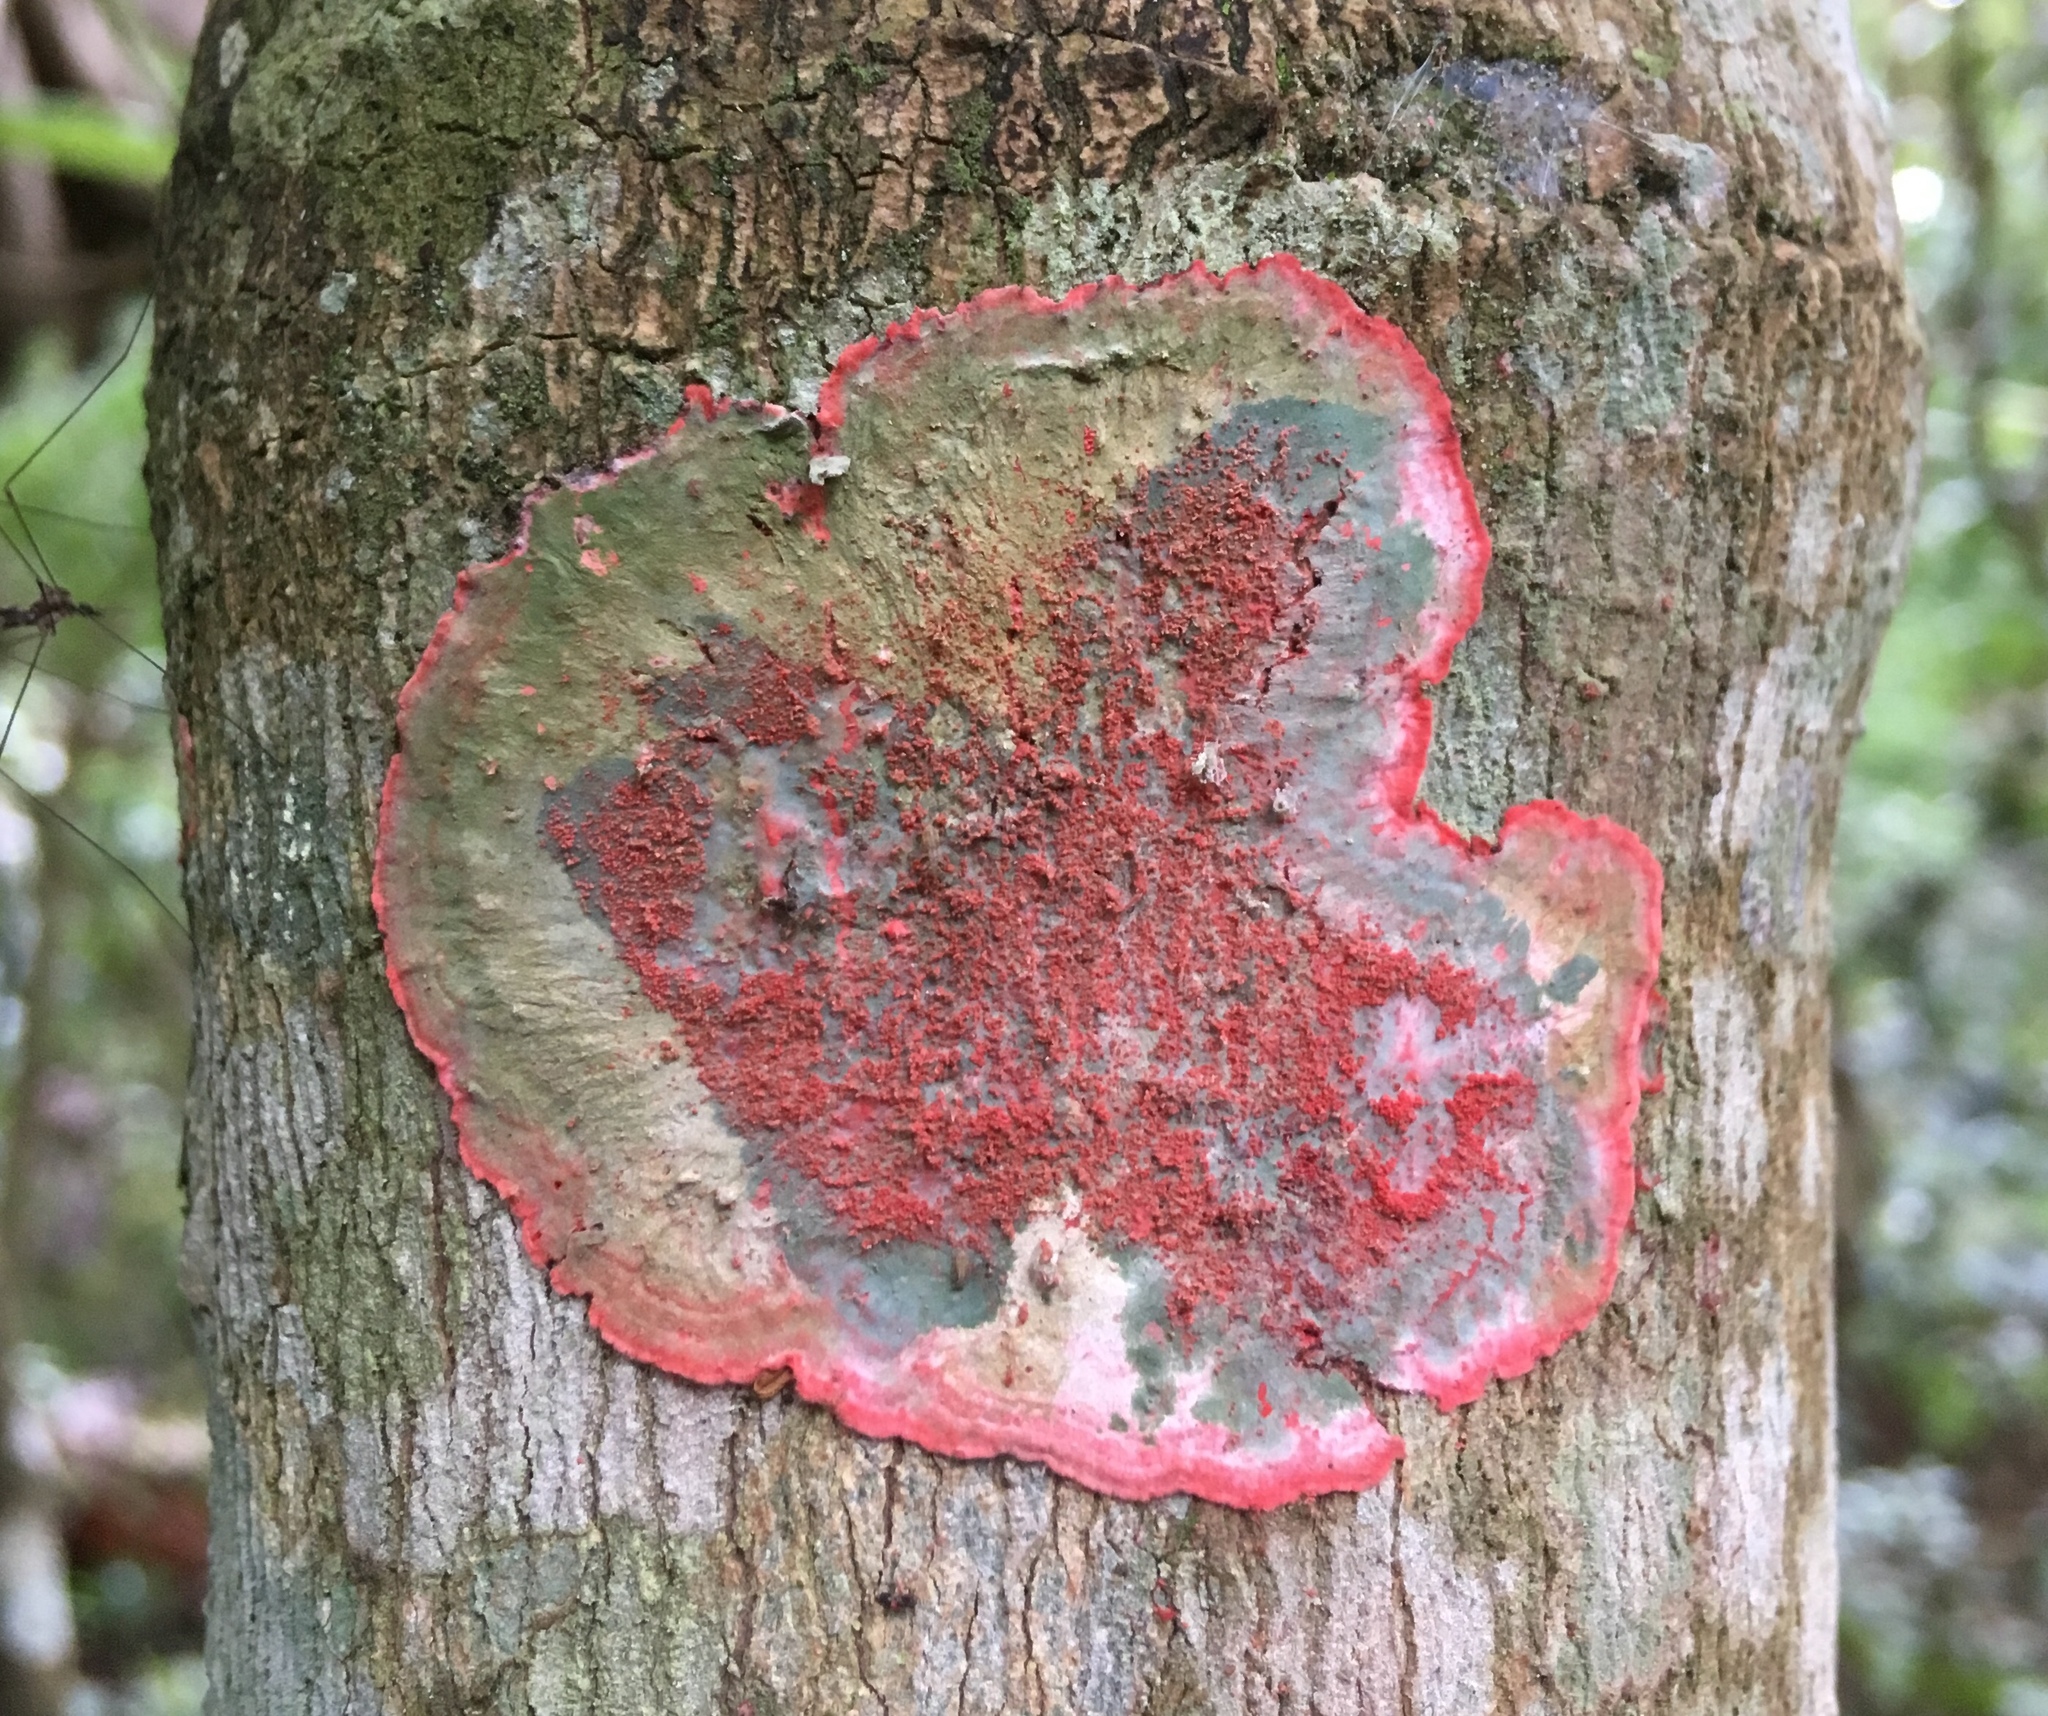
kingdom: Fungi
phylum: Ascomycota
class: Arthoniomycetes
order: Arthoniales
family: Arthoniaceae
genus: Herpothallon
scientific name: Herpothallon rubrocinctum
